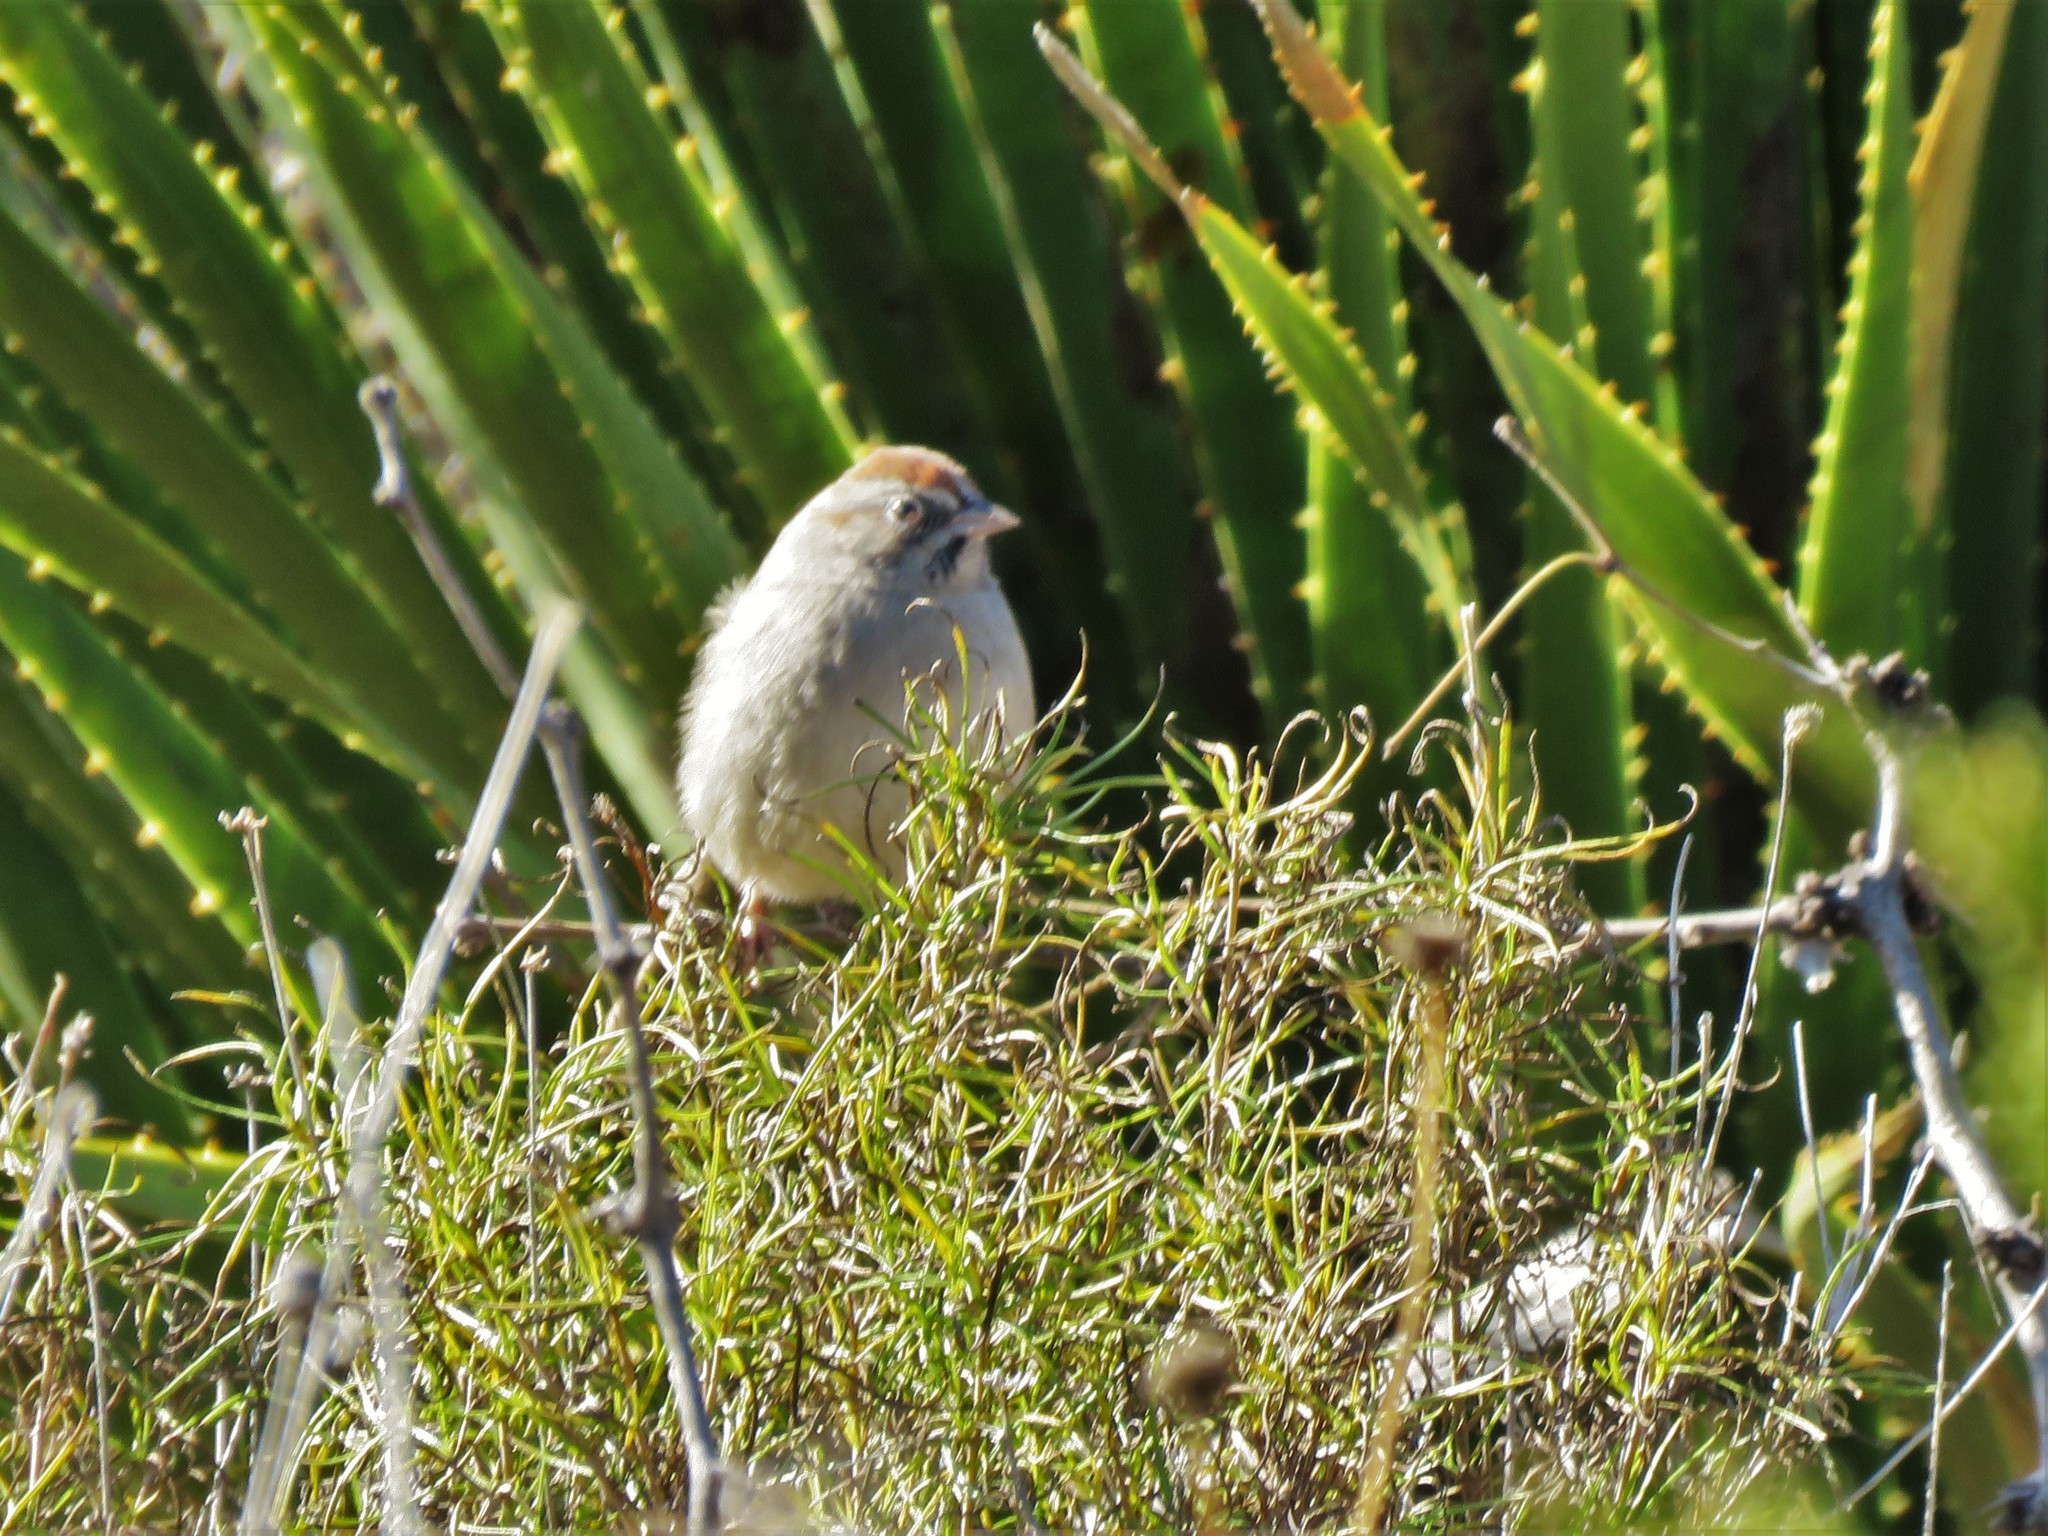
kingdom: Animalia
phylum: Chordata
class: Aves
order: Passeriformes
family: Passerellidae
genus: Aimophila
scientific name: Aimophila ruficeps
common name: Rufous-crowned sparrow
